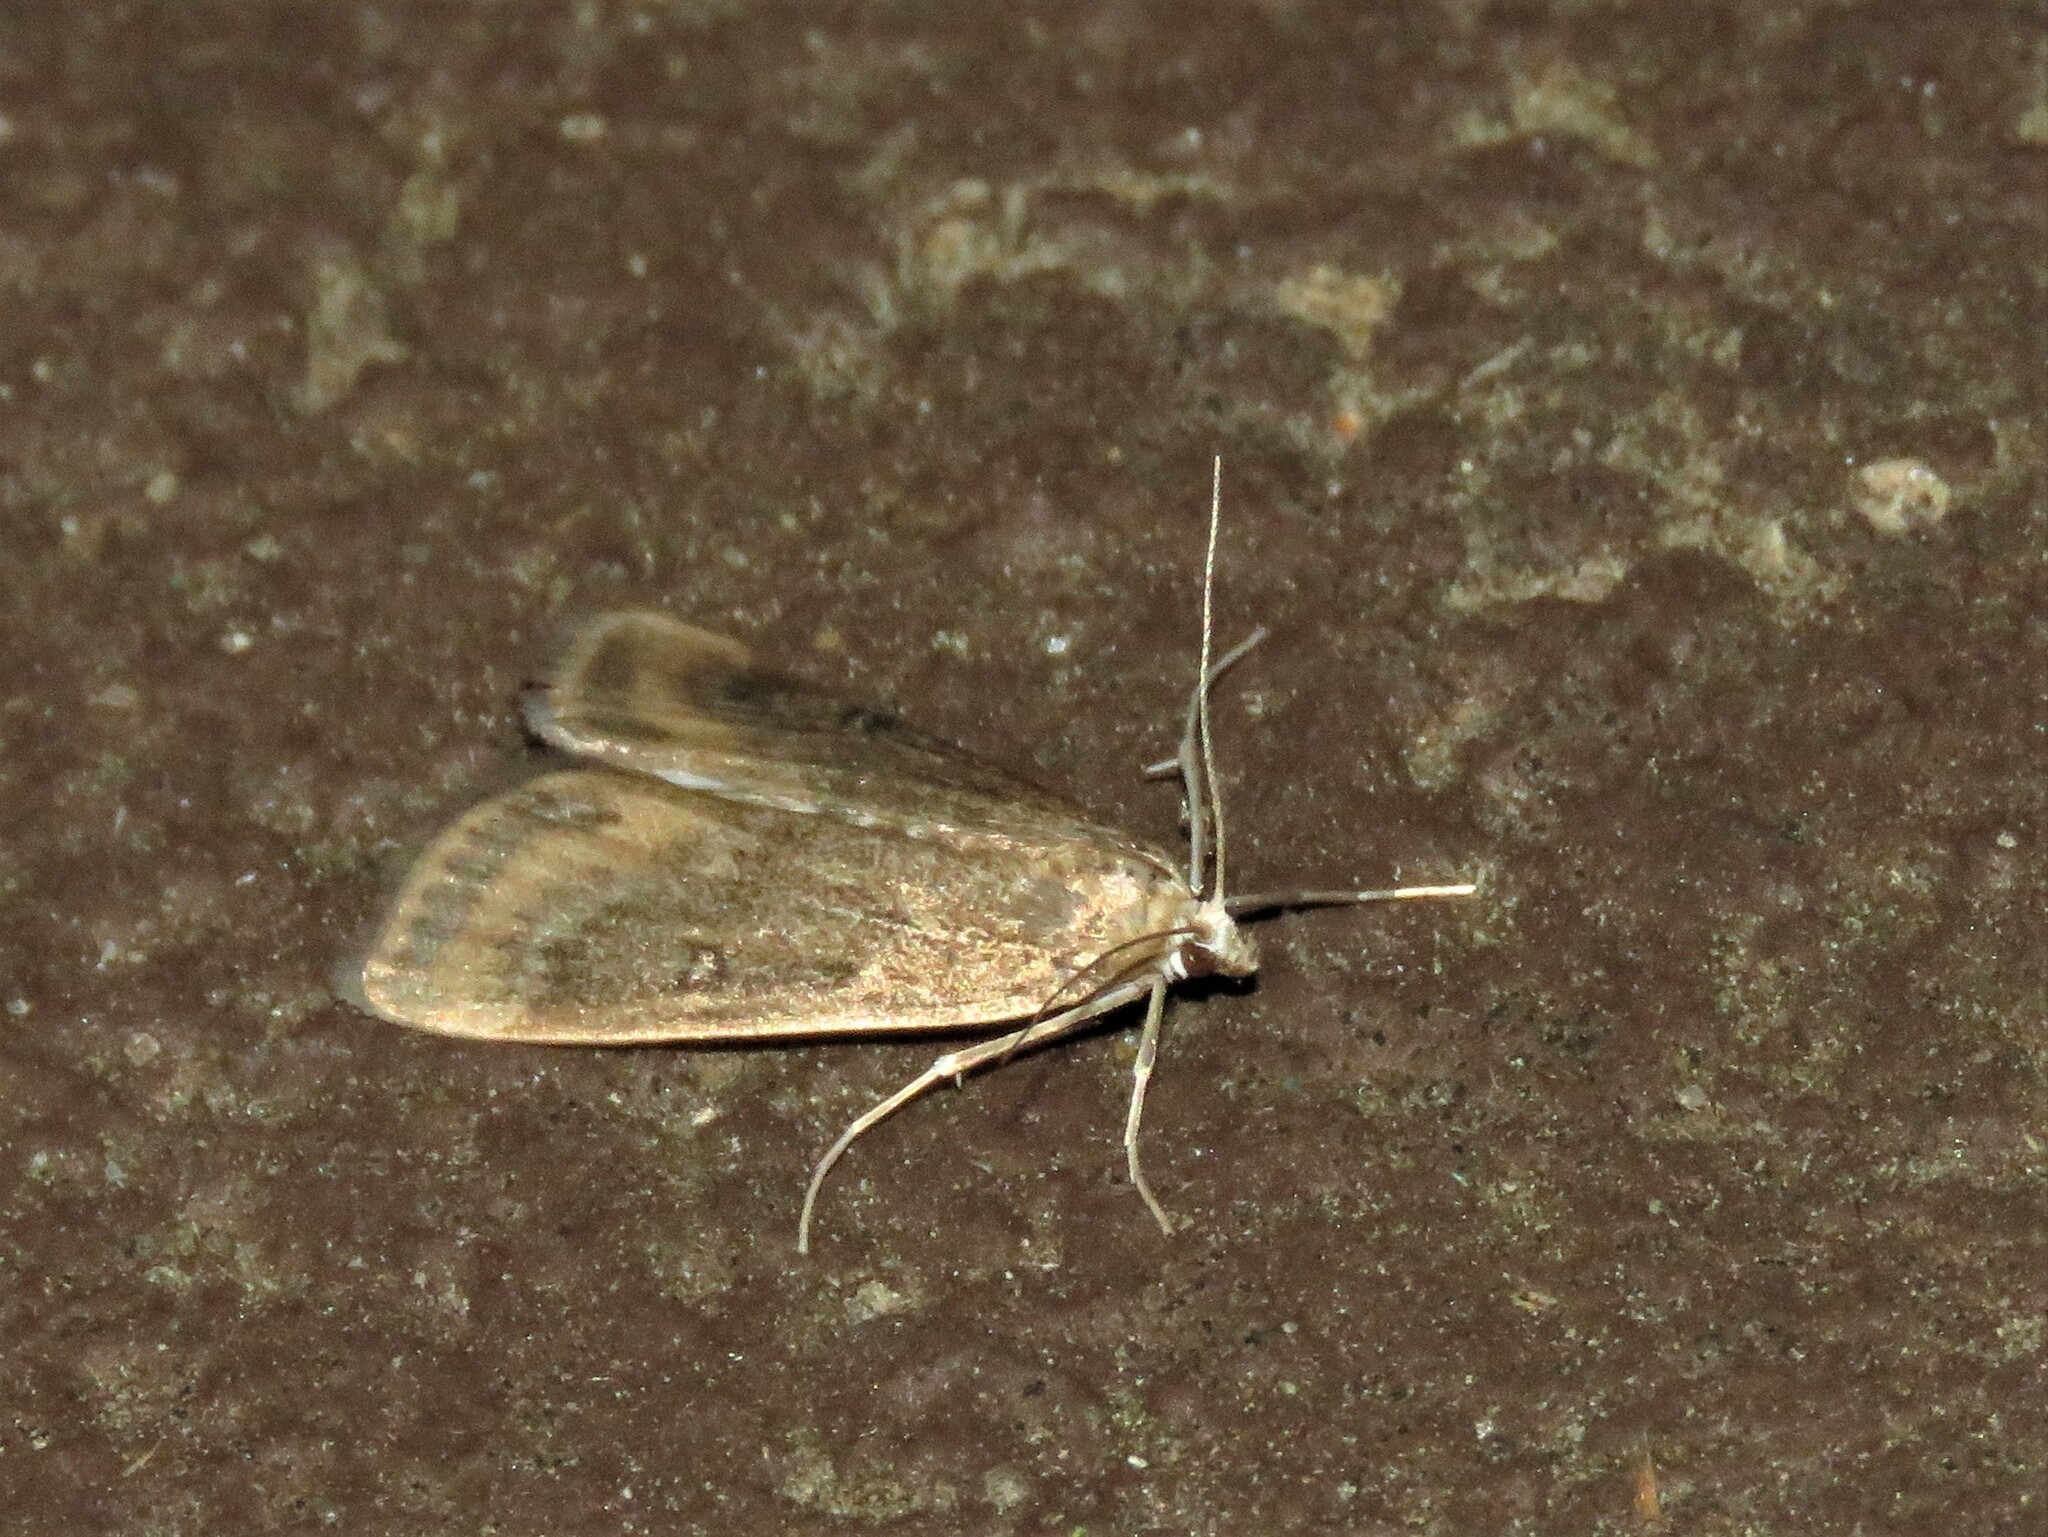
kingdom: Animalia
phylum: Arthropoda
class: Insecta
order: Lepidoptera
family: Crambidae
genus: Parapoynx
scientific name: Parapoynx stratiotata
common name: Ringed china-mark
